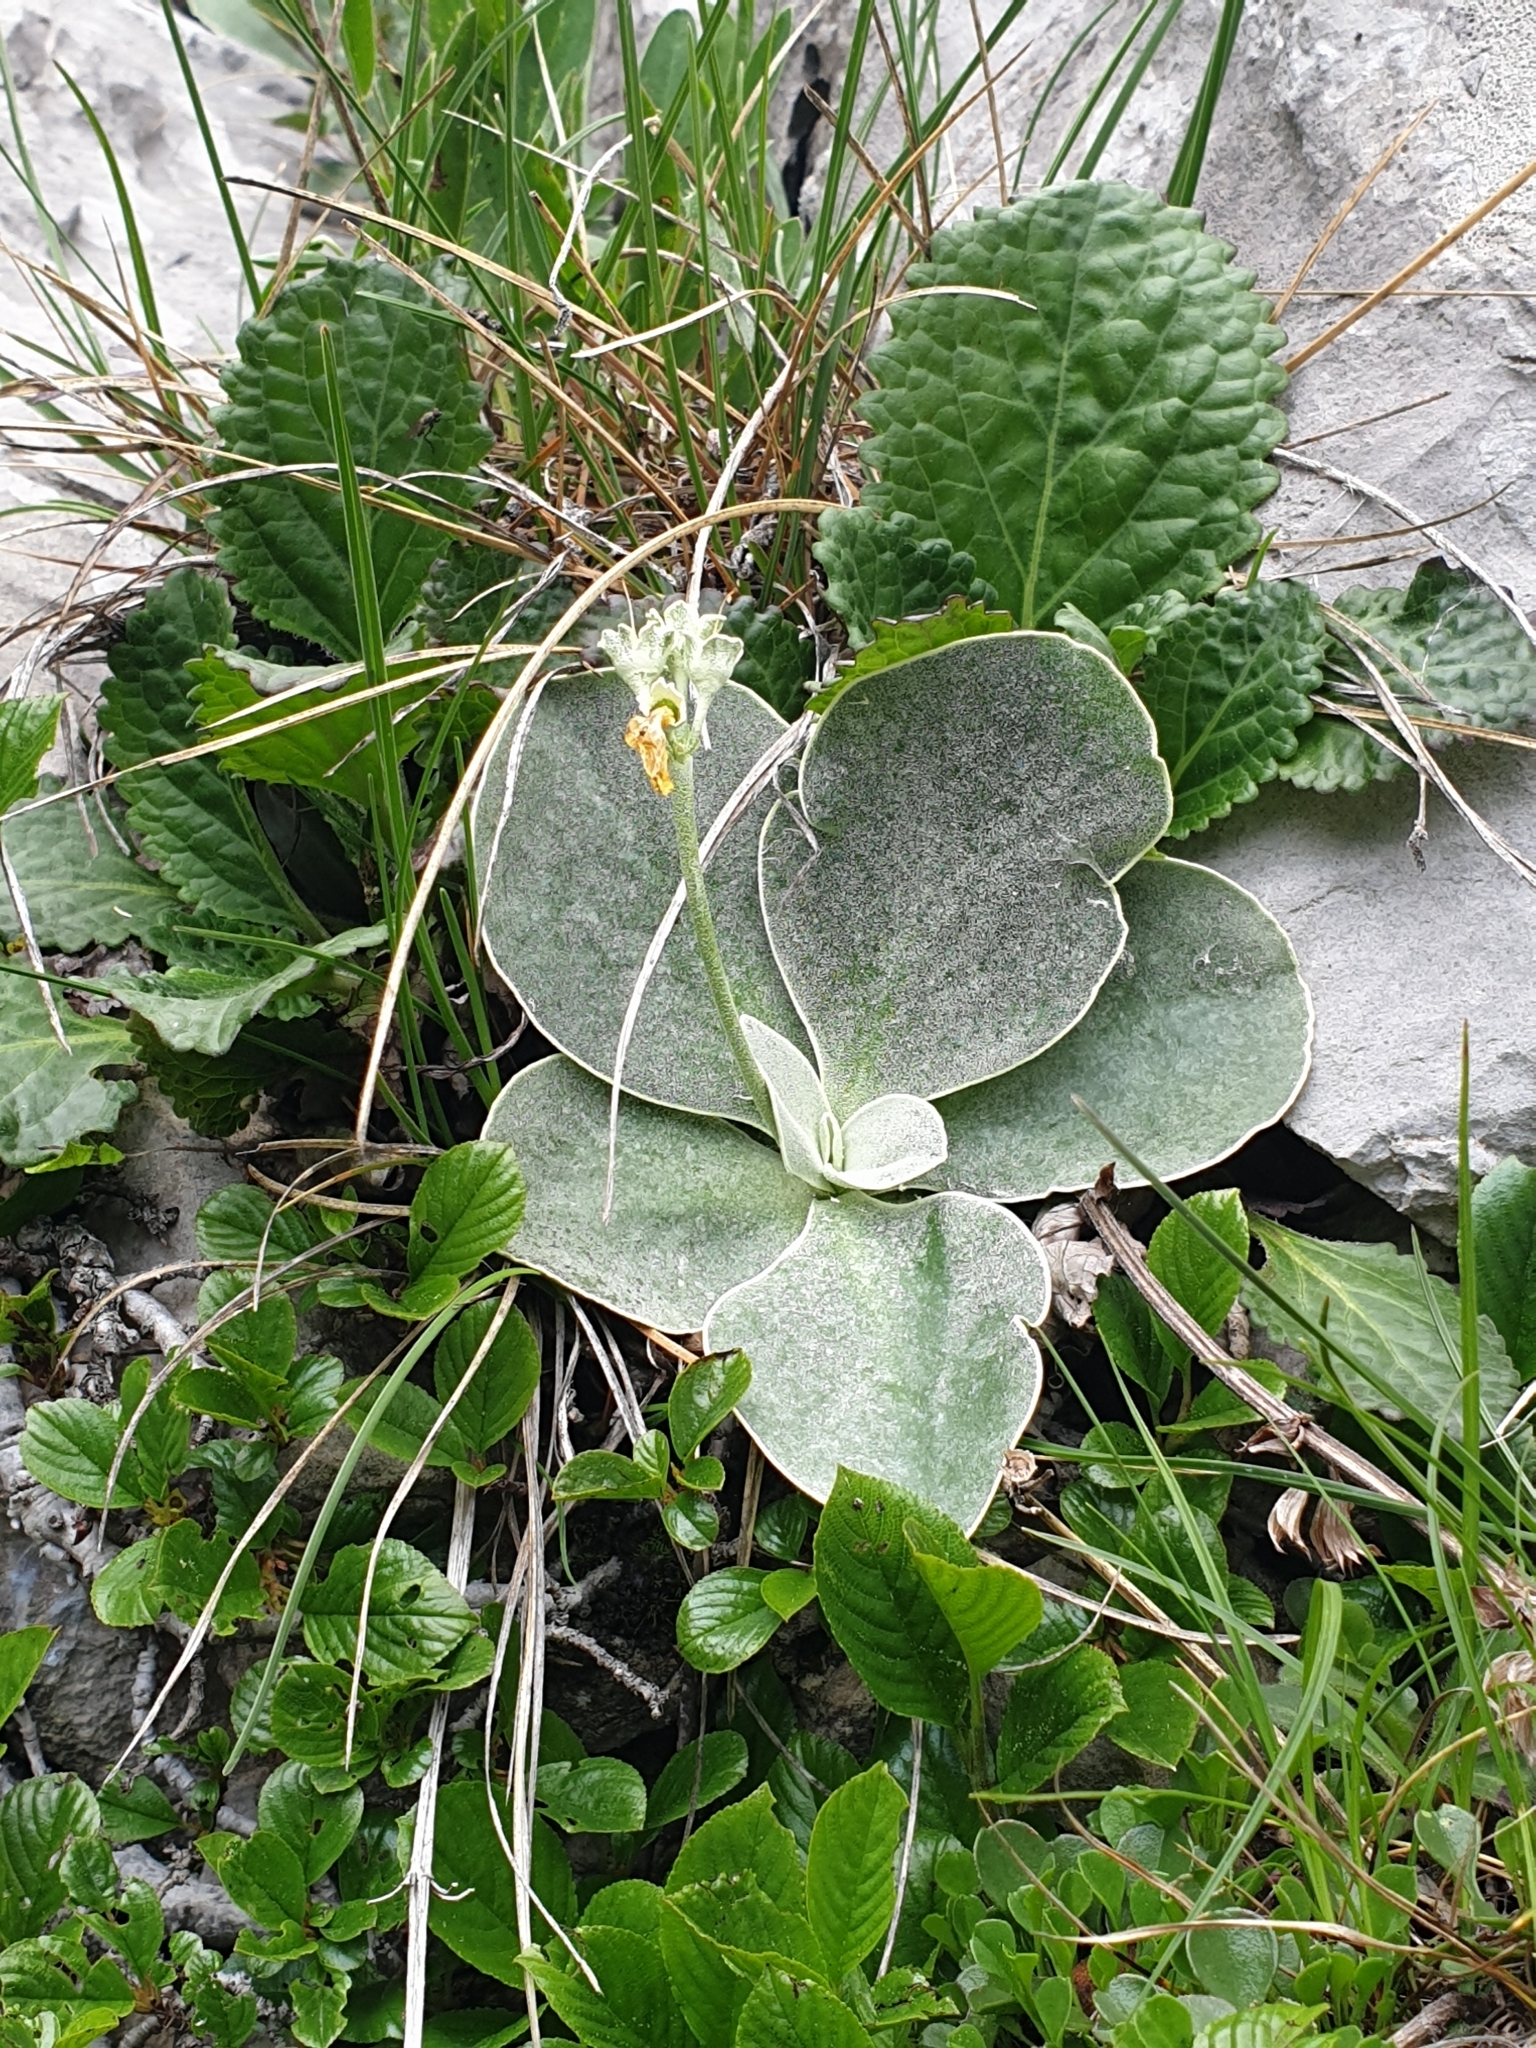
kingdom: Plantae
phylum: Tracheophyta
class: Magnoliopsida
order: Ericales
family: Primulaceae
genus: Primula
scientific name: Primula auricula
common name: Auricula
